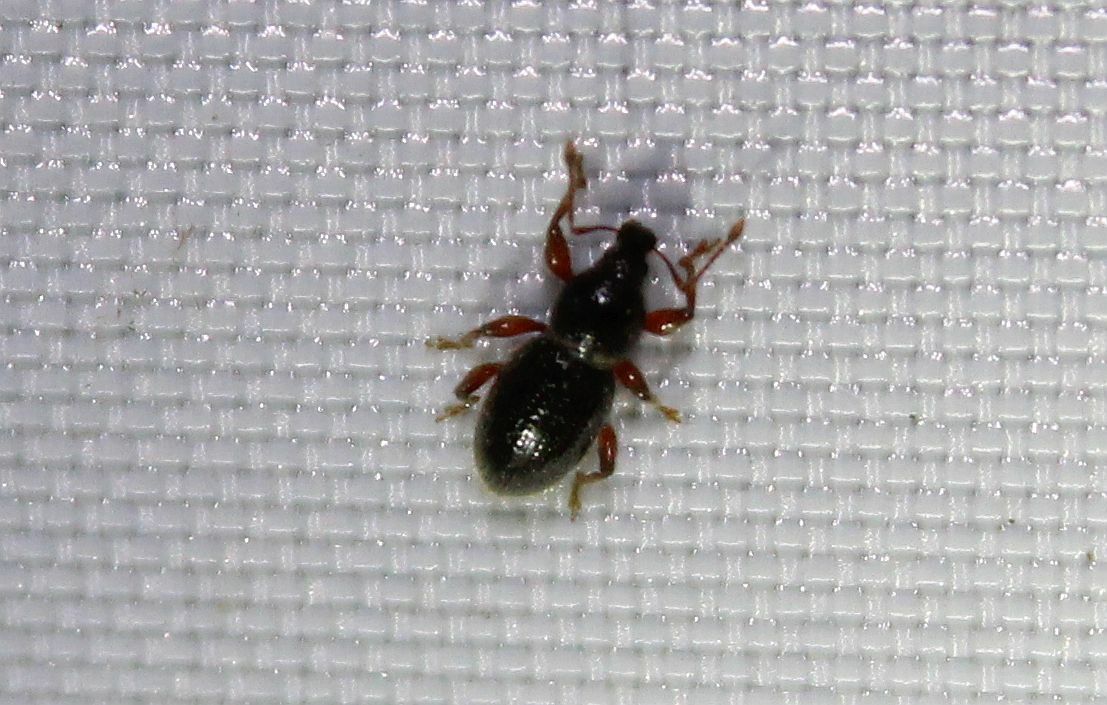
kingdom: Animalia
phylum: Arthropoda
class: Insecta
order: Coleoptera
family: Curculionidae
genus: Exomias
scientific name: Exomias pellucidus
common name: Hairy spider weevil
